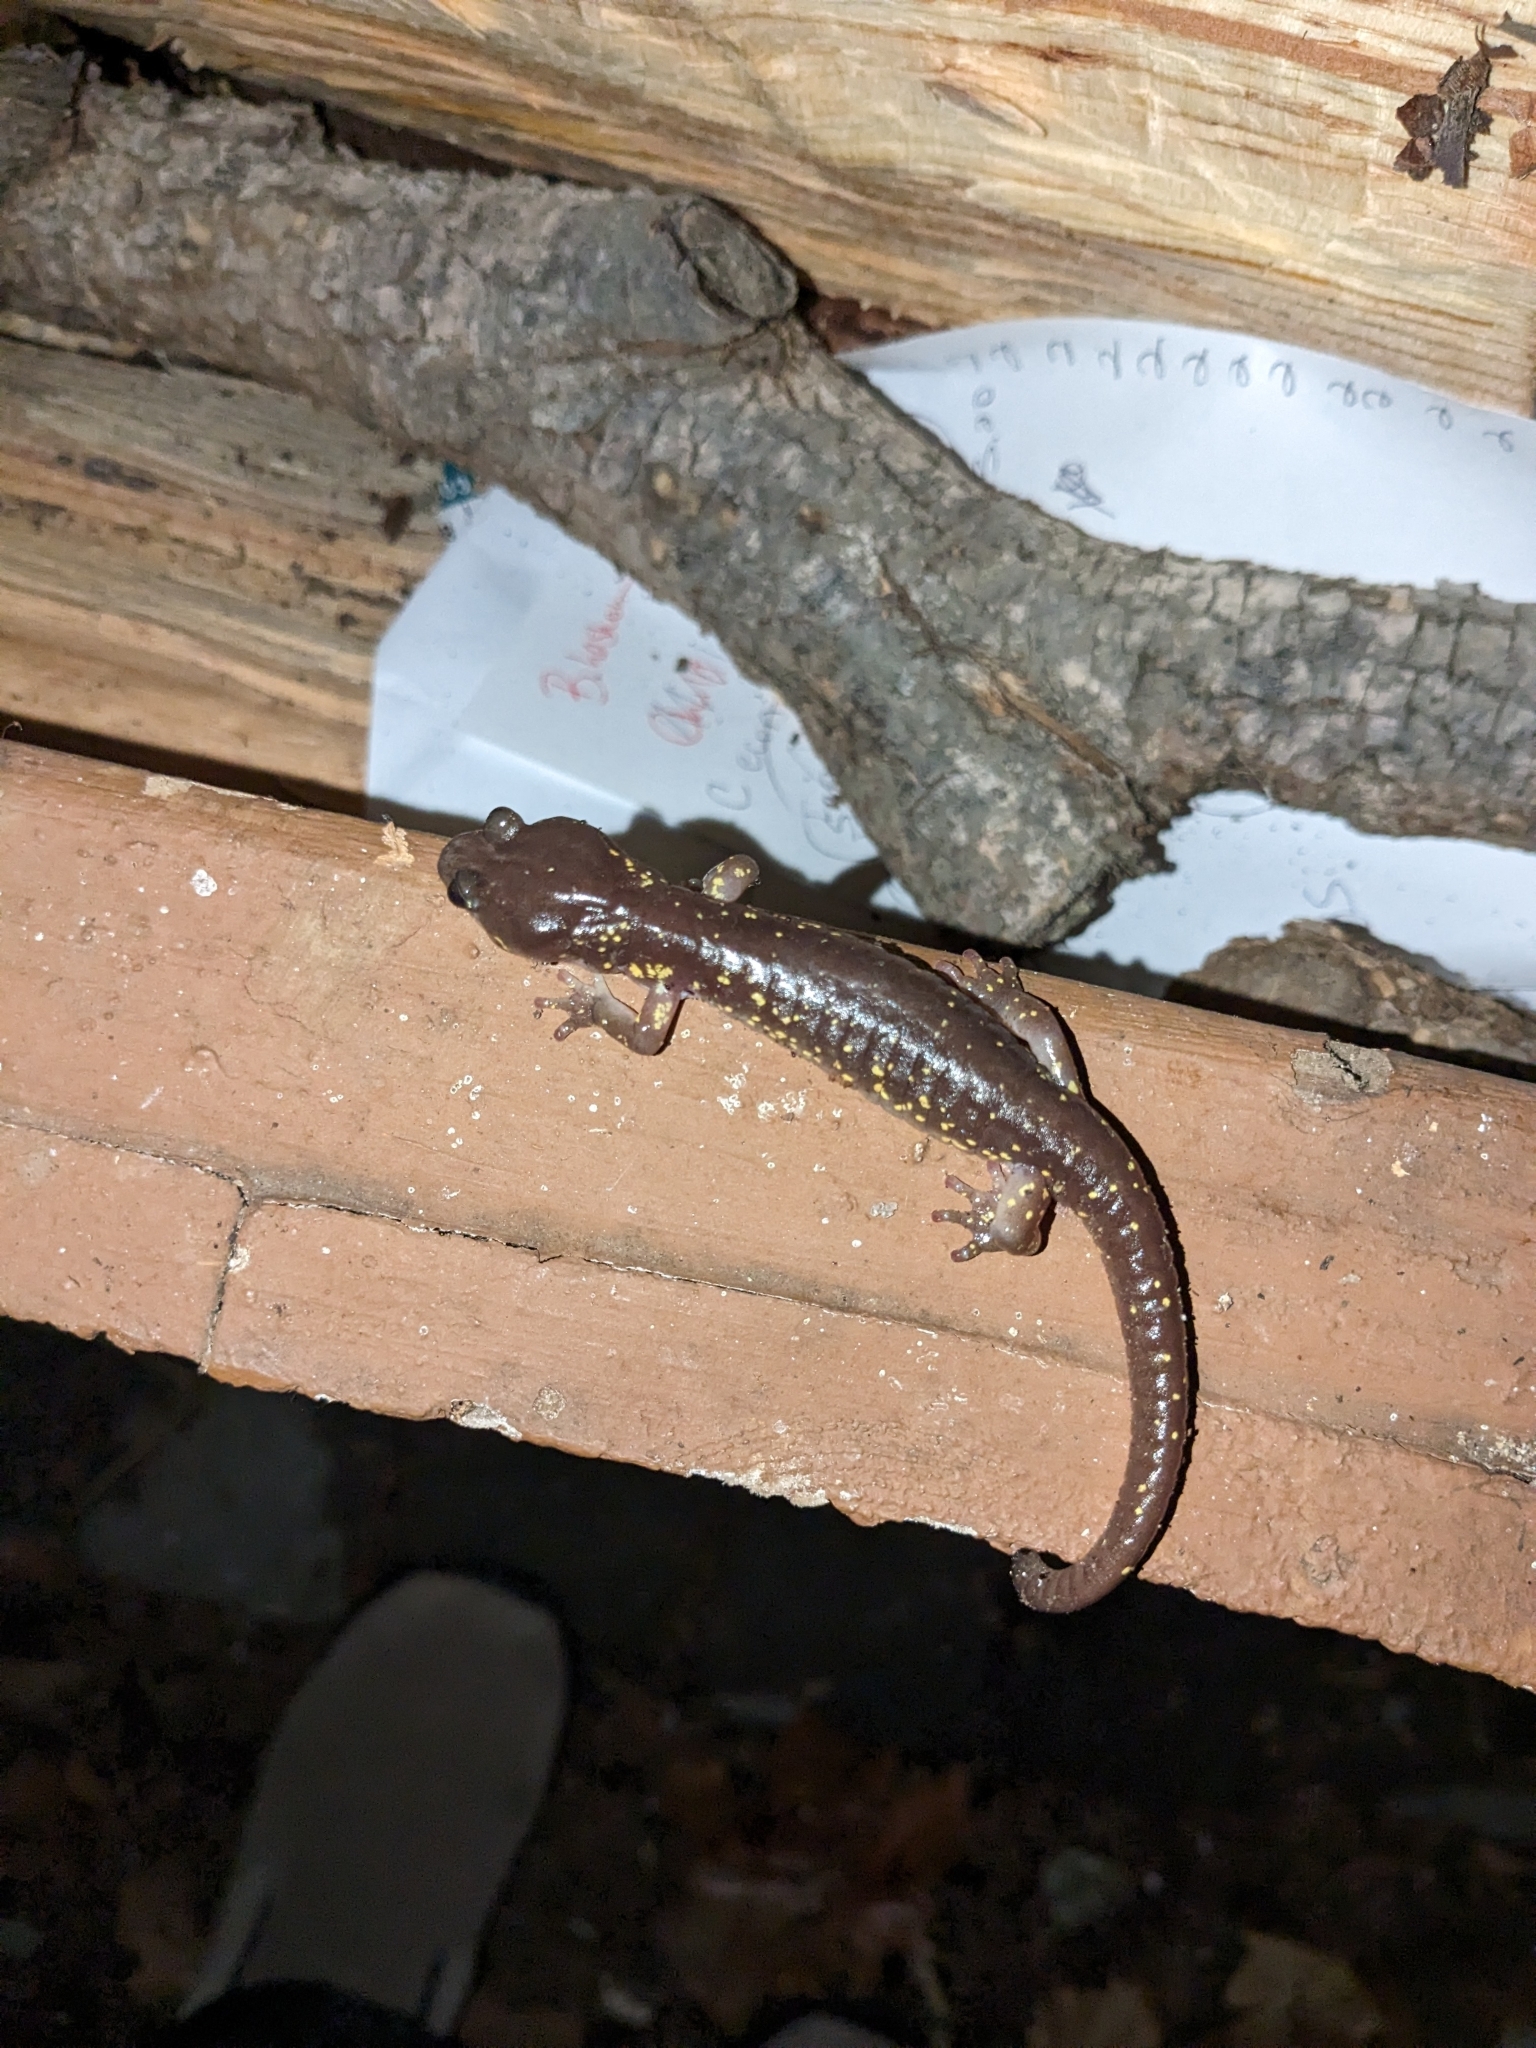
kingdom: Animalia
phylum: Chordata
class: Amphibia
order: Caudata
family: Plethodontidae
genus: Aneides
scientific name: Aneides lugubris
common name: Arboreal salamander
